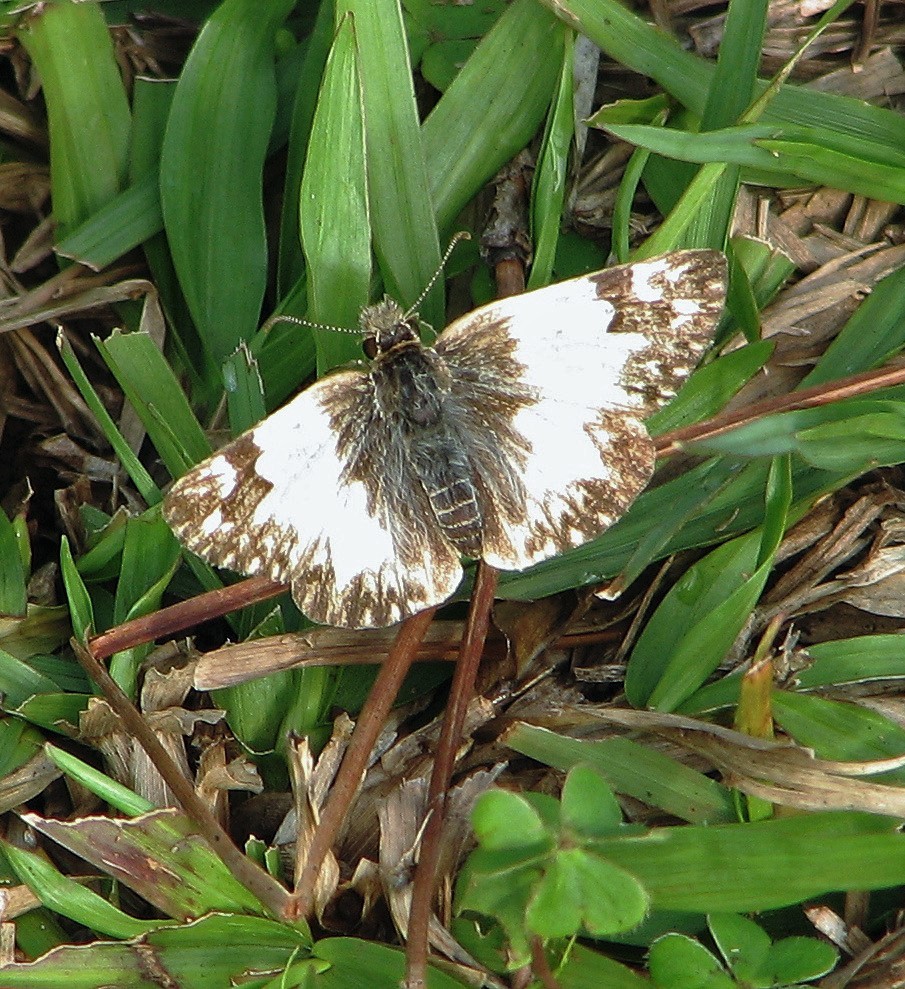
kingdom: Animalia
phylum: Arthropoda
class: Insecta
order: Lepidoptera
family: Hesperiidae
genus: Heliopetes
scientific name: Heliopetes omrina
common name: Stained white-skipper
